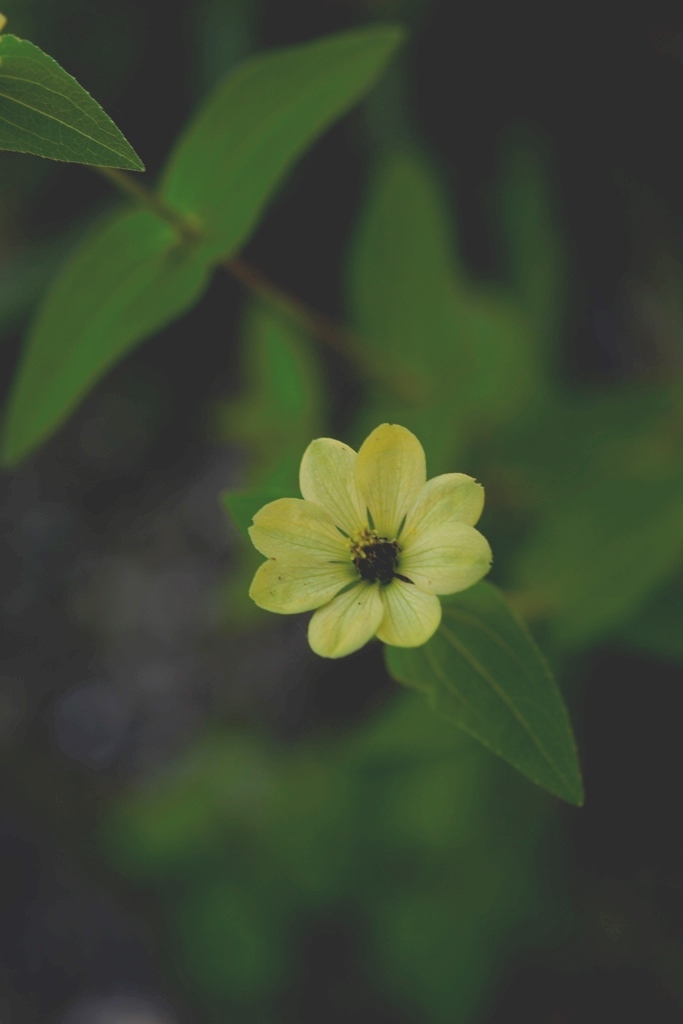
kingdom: Plantae
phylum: Tracheophyta
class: Magnoliopsida
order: Asterales
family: Asteraceae
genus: Zinnia
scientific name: Zinnia peruviana
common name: Peruvian zinnia
